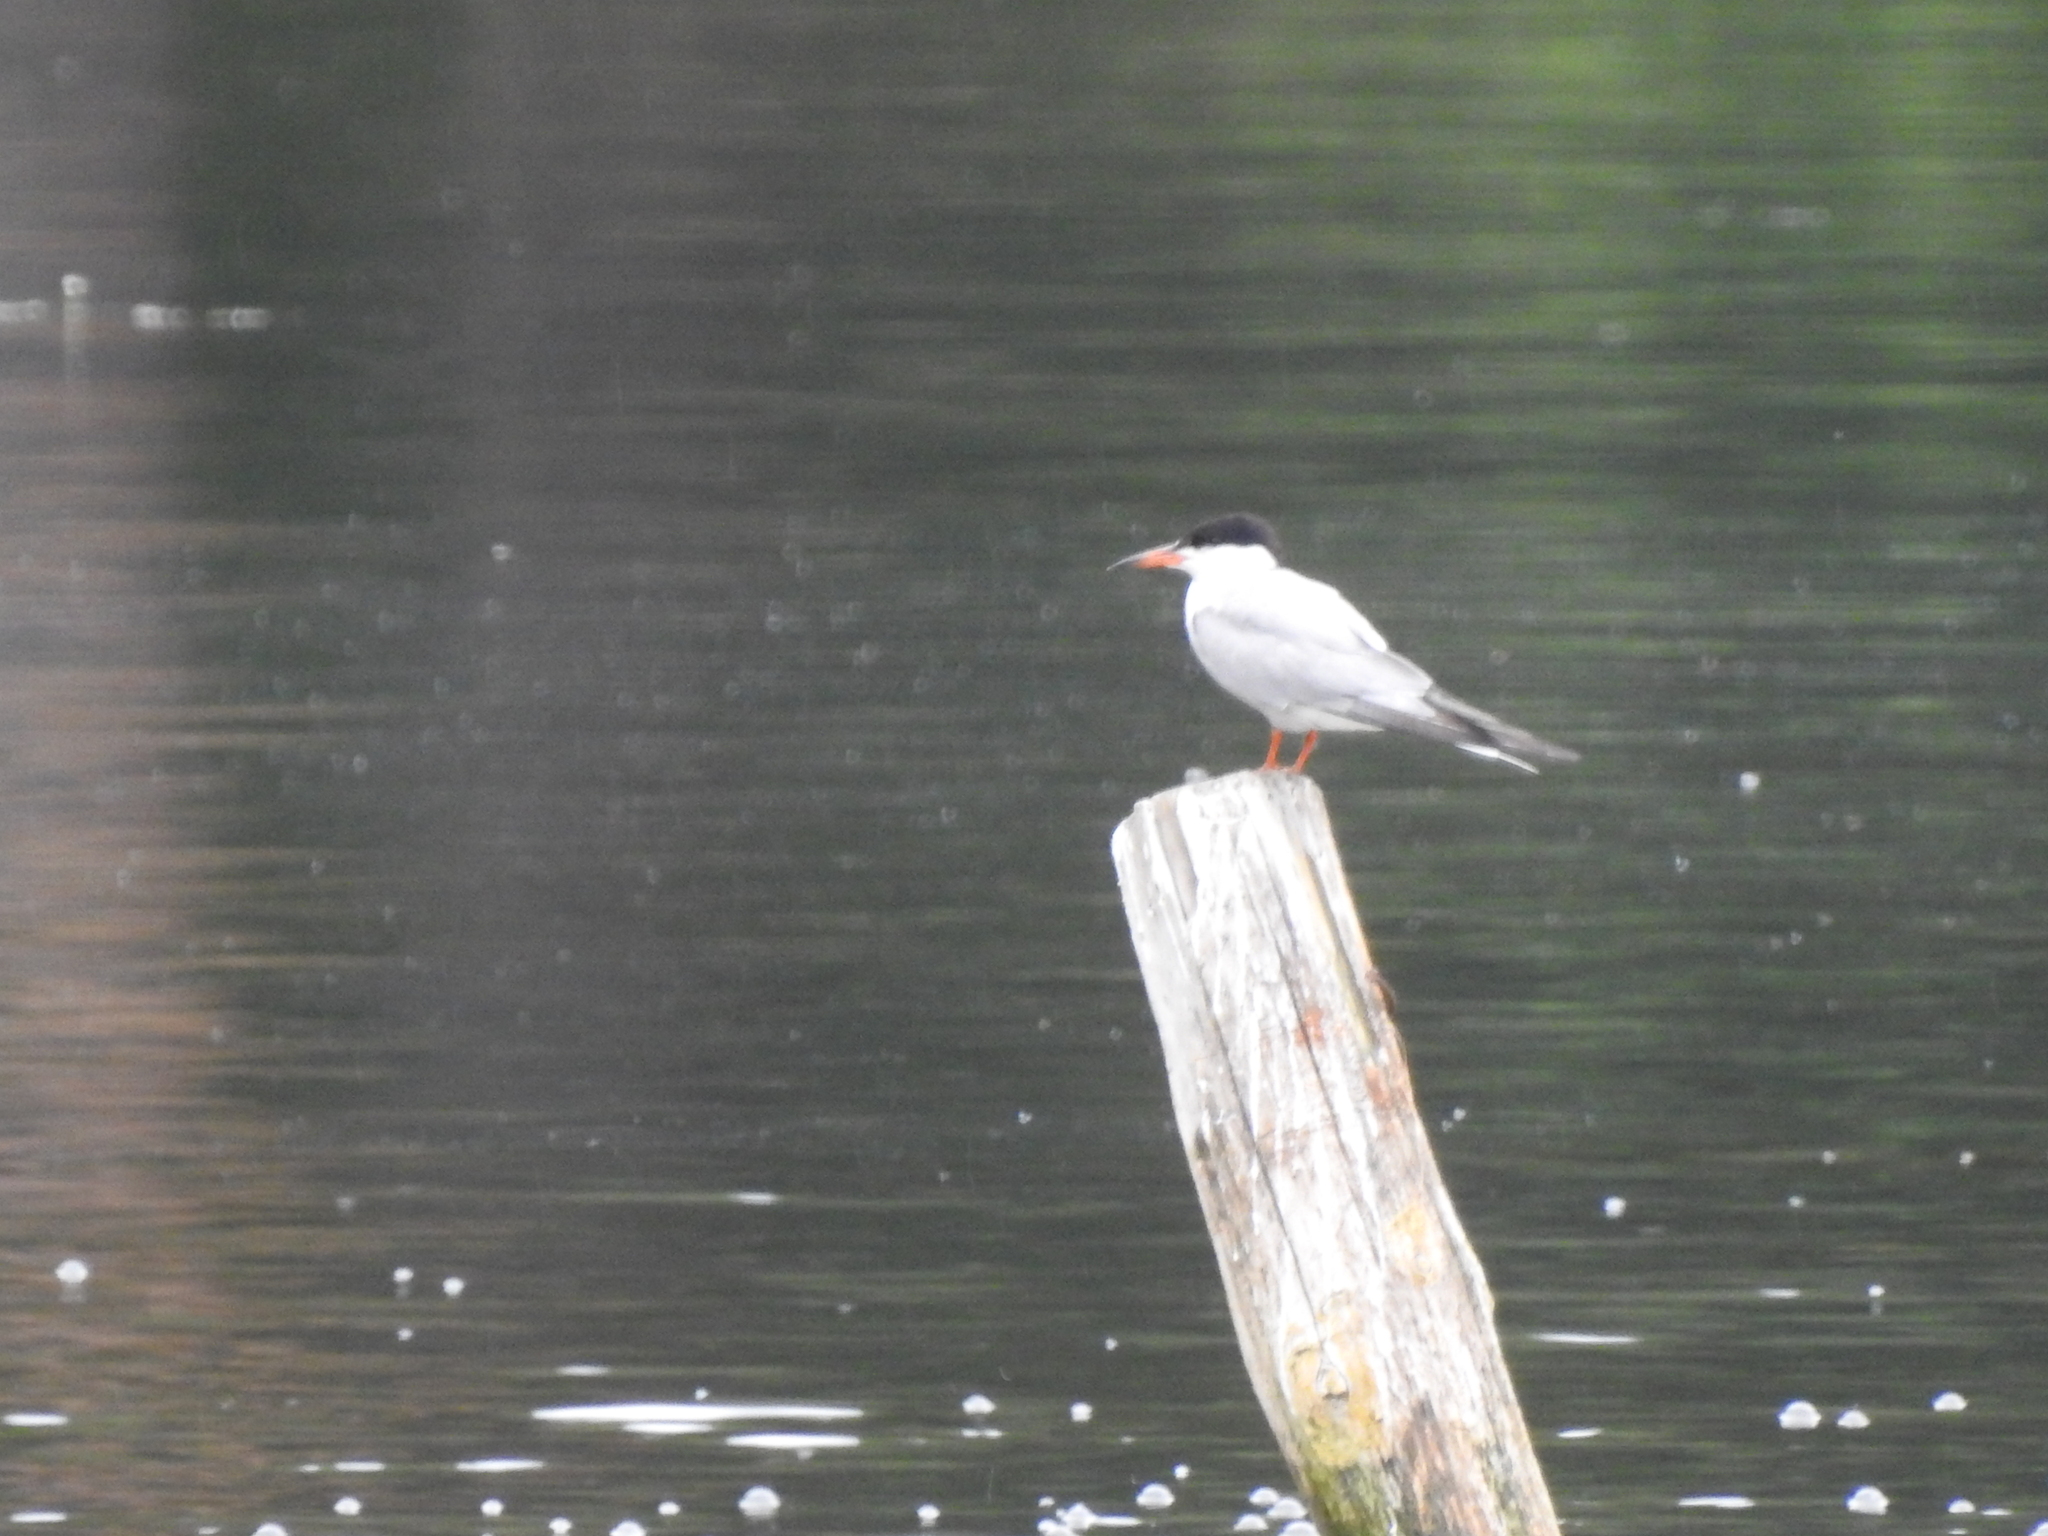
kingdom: Animalia
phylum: Chordata
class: Aves
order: Charadriiformes
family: Laridae
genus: Sterna
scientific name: Sterna hirundo
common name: Common tern
